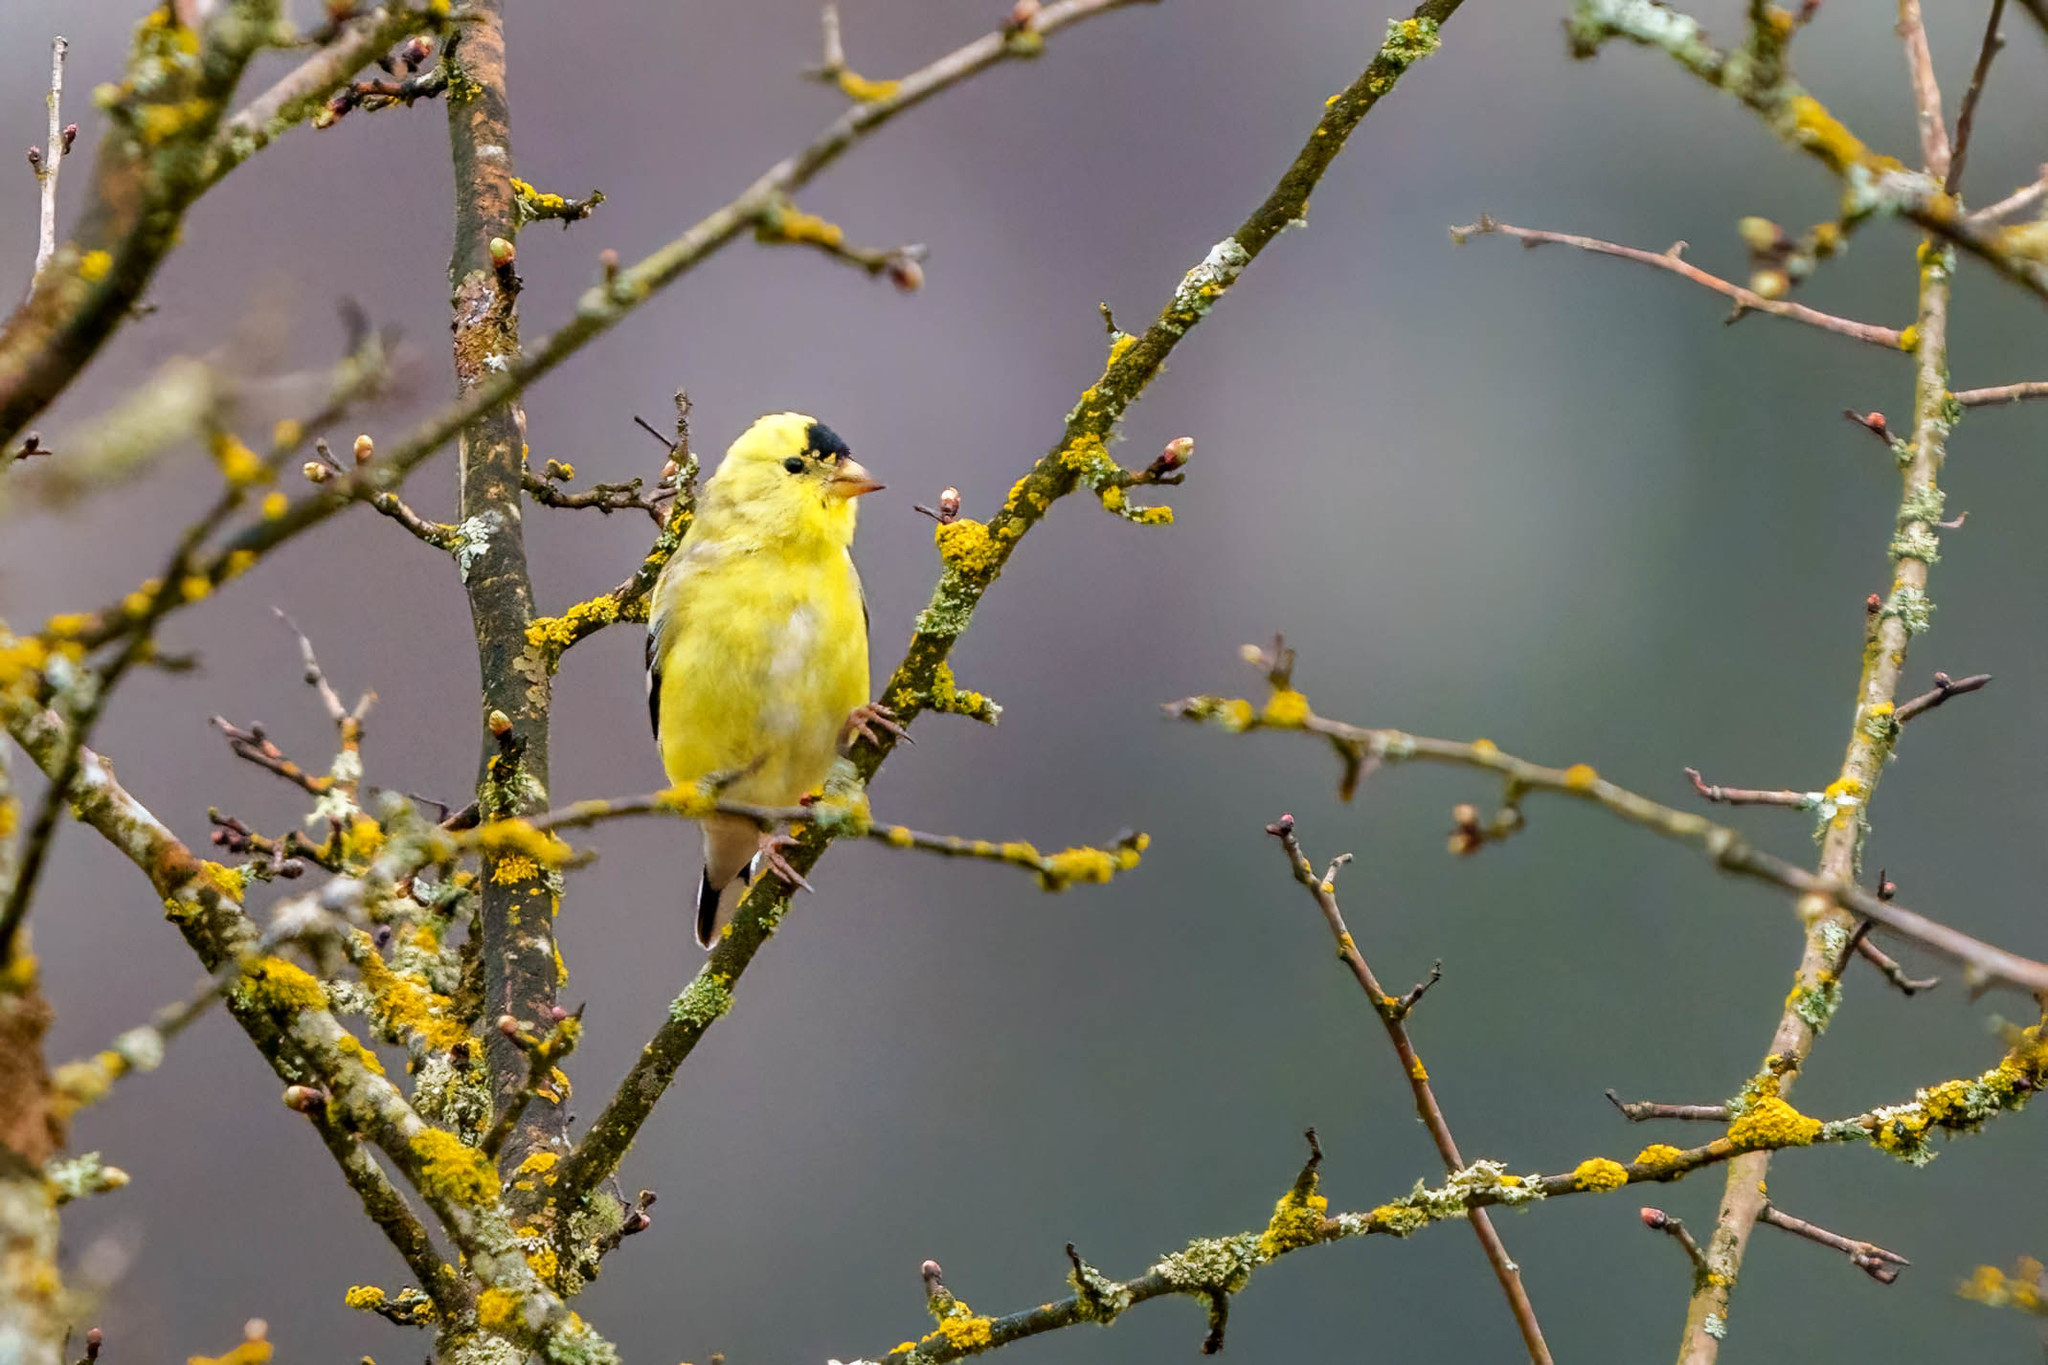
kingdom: Animalia
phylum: Chordata
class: Aves
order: Passeriformes
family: Fringillidae
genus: Spinus
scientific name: Spinus tristis
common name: American goldfinch
